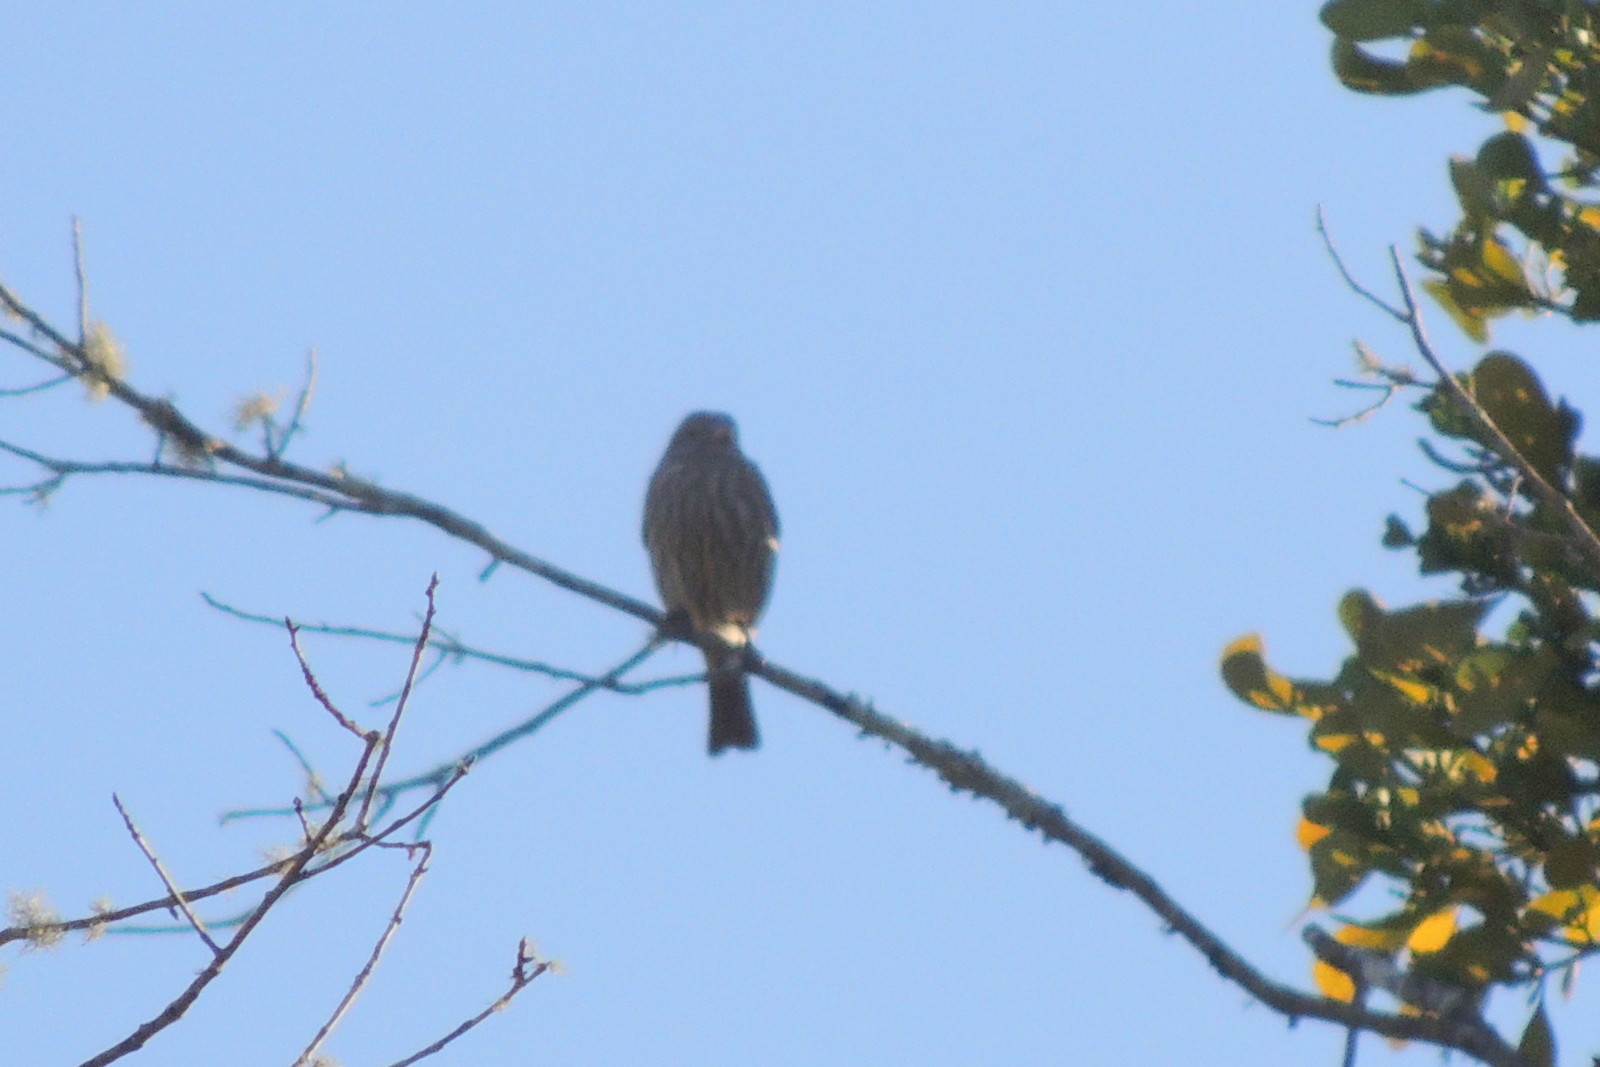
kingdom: Animalia
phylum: Chordata
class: Aves
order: Passeriformes
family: Fringillidae
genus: Haemorhous
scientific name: Haemorhous mexicanus
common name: House finch
